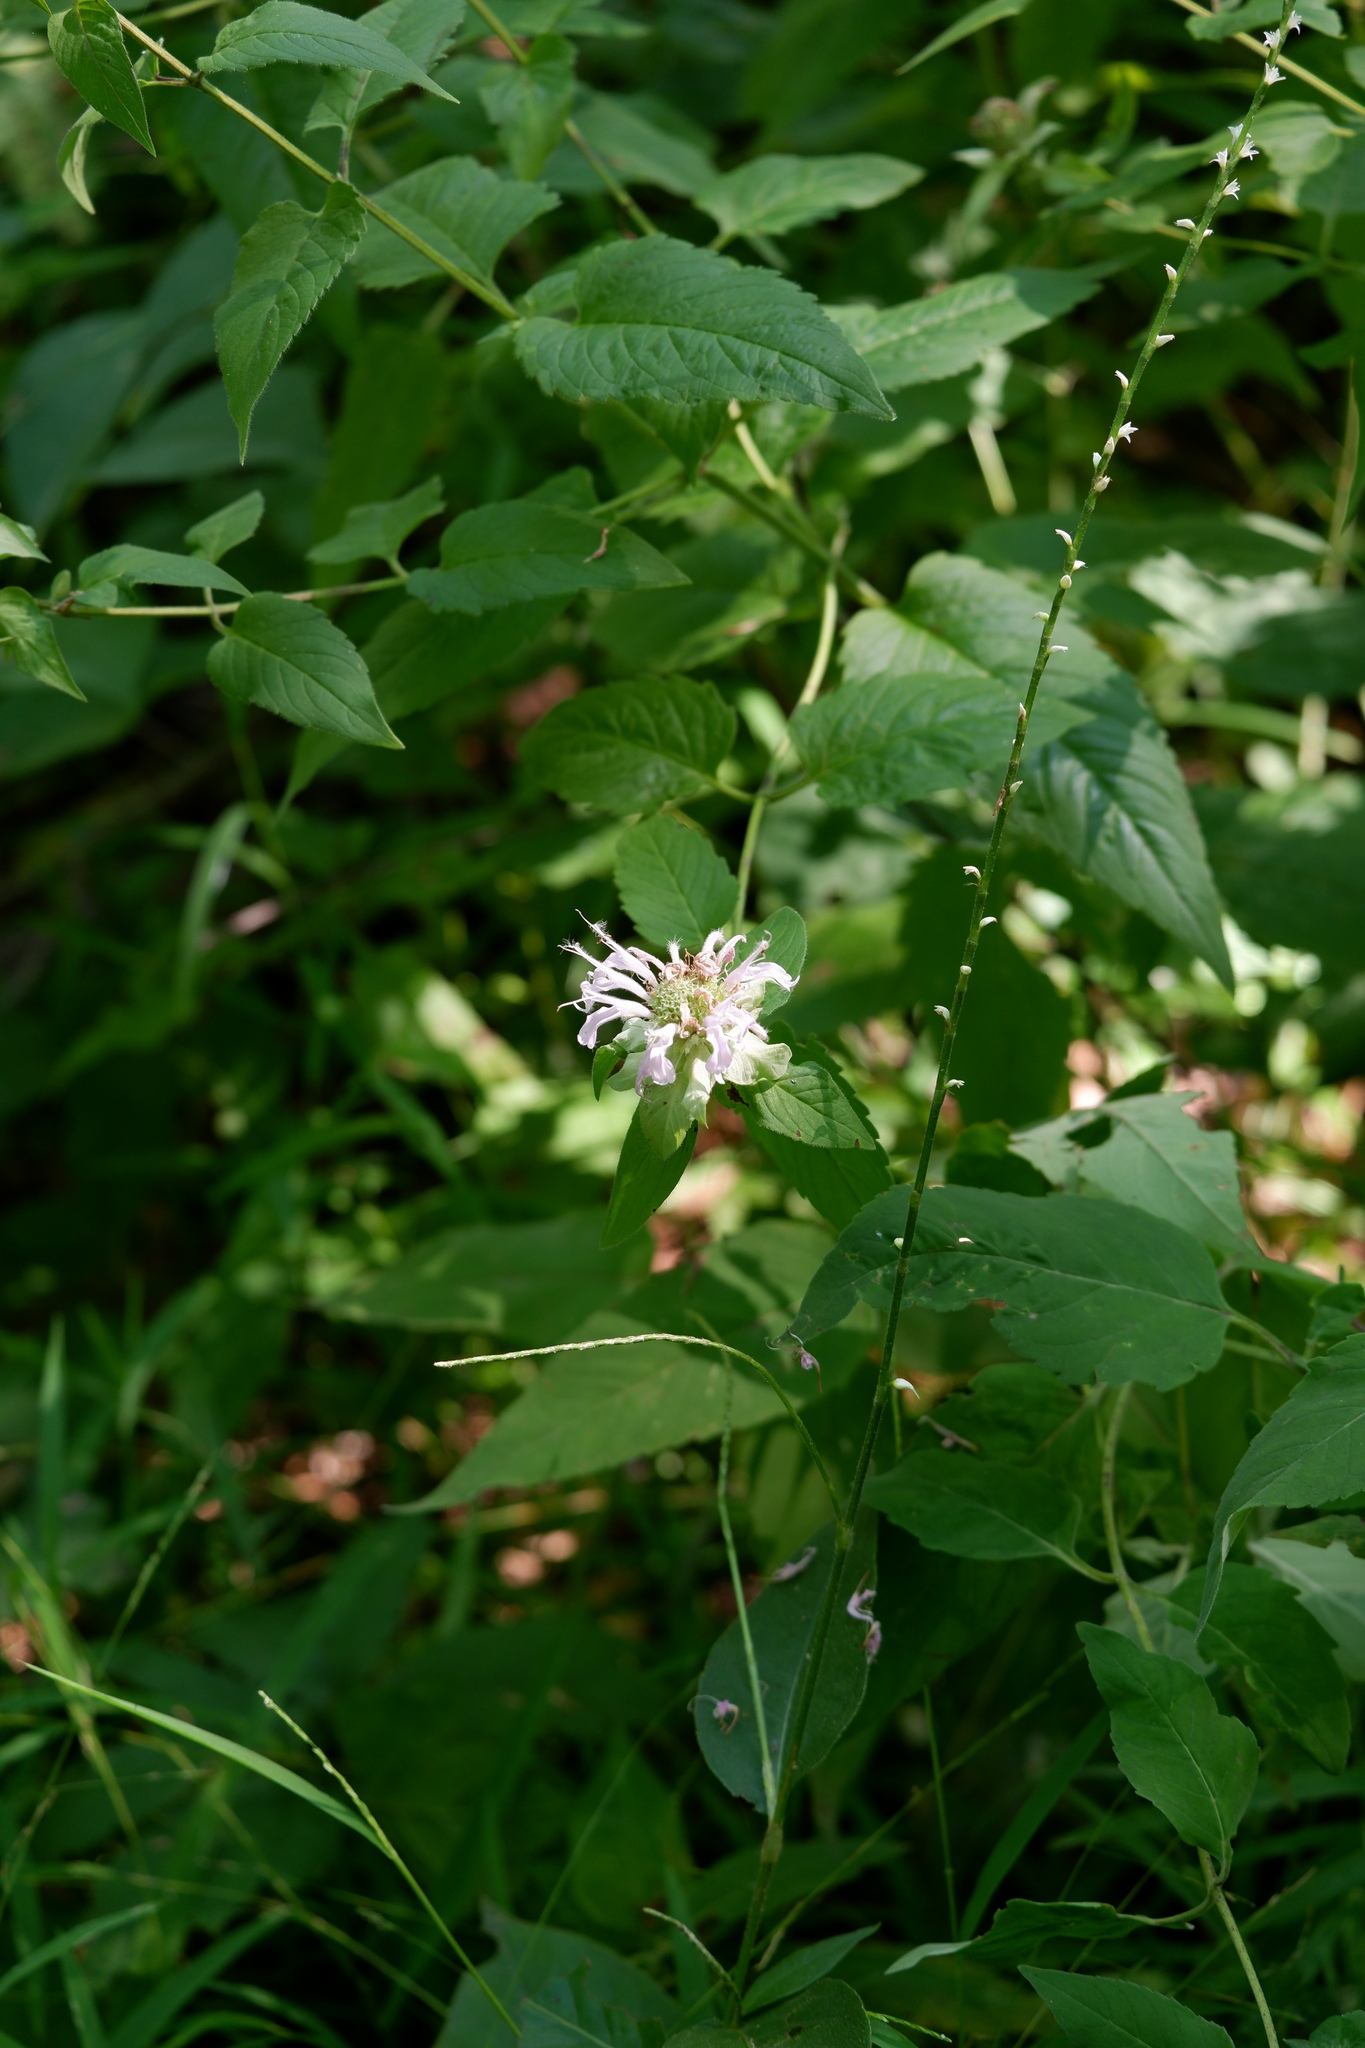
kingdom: Plantae
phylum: Tracheophyta
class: Magnoliopsida
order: Lamiales
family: Lamiaceae
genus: Monarda
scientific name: Monarda fistulosa
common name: Purple beebalm
